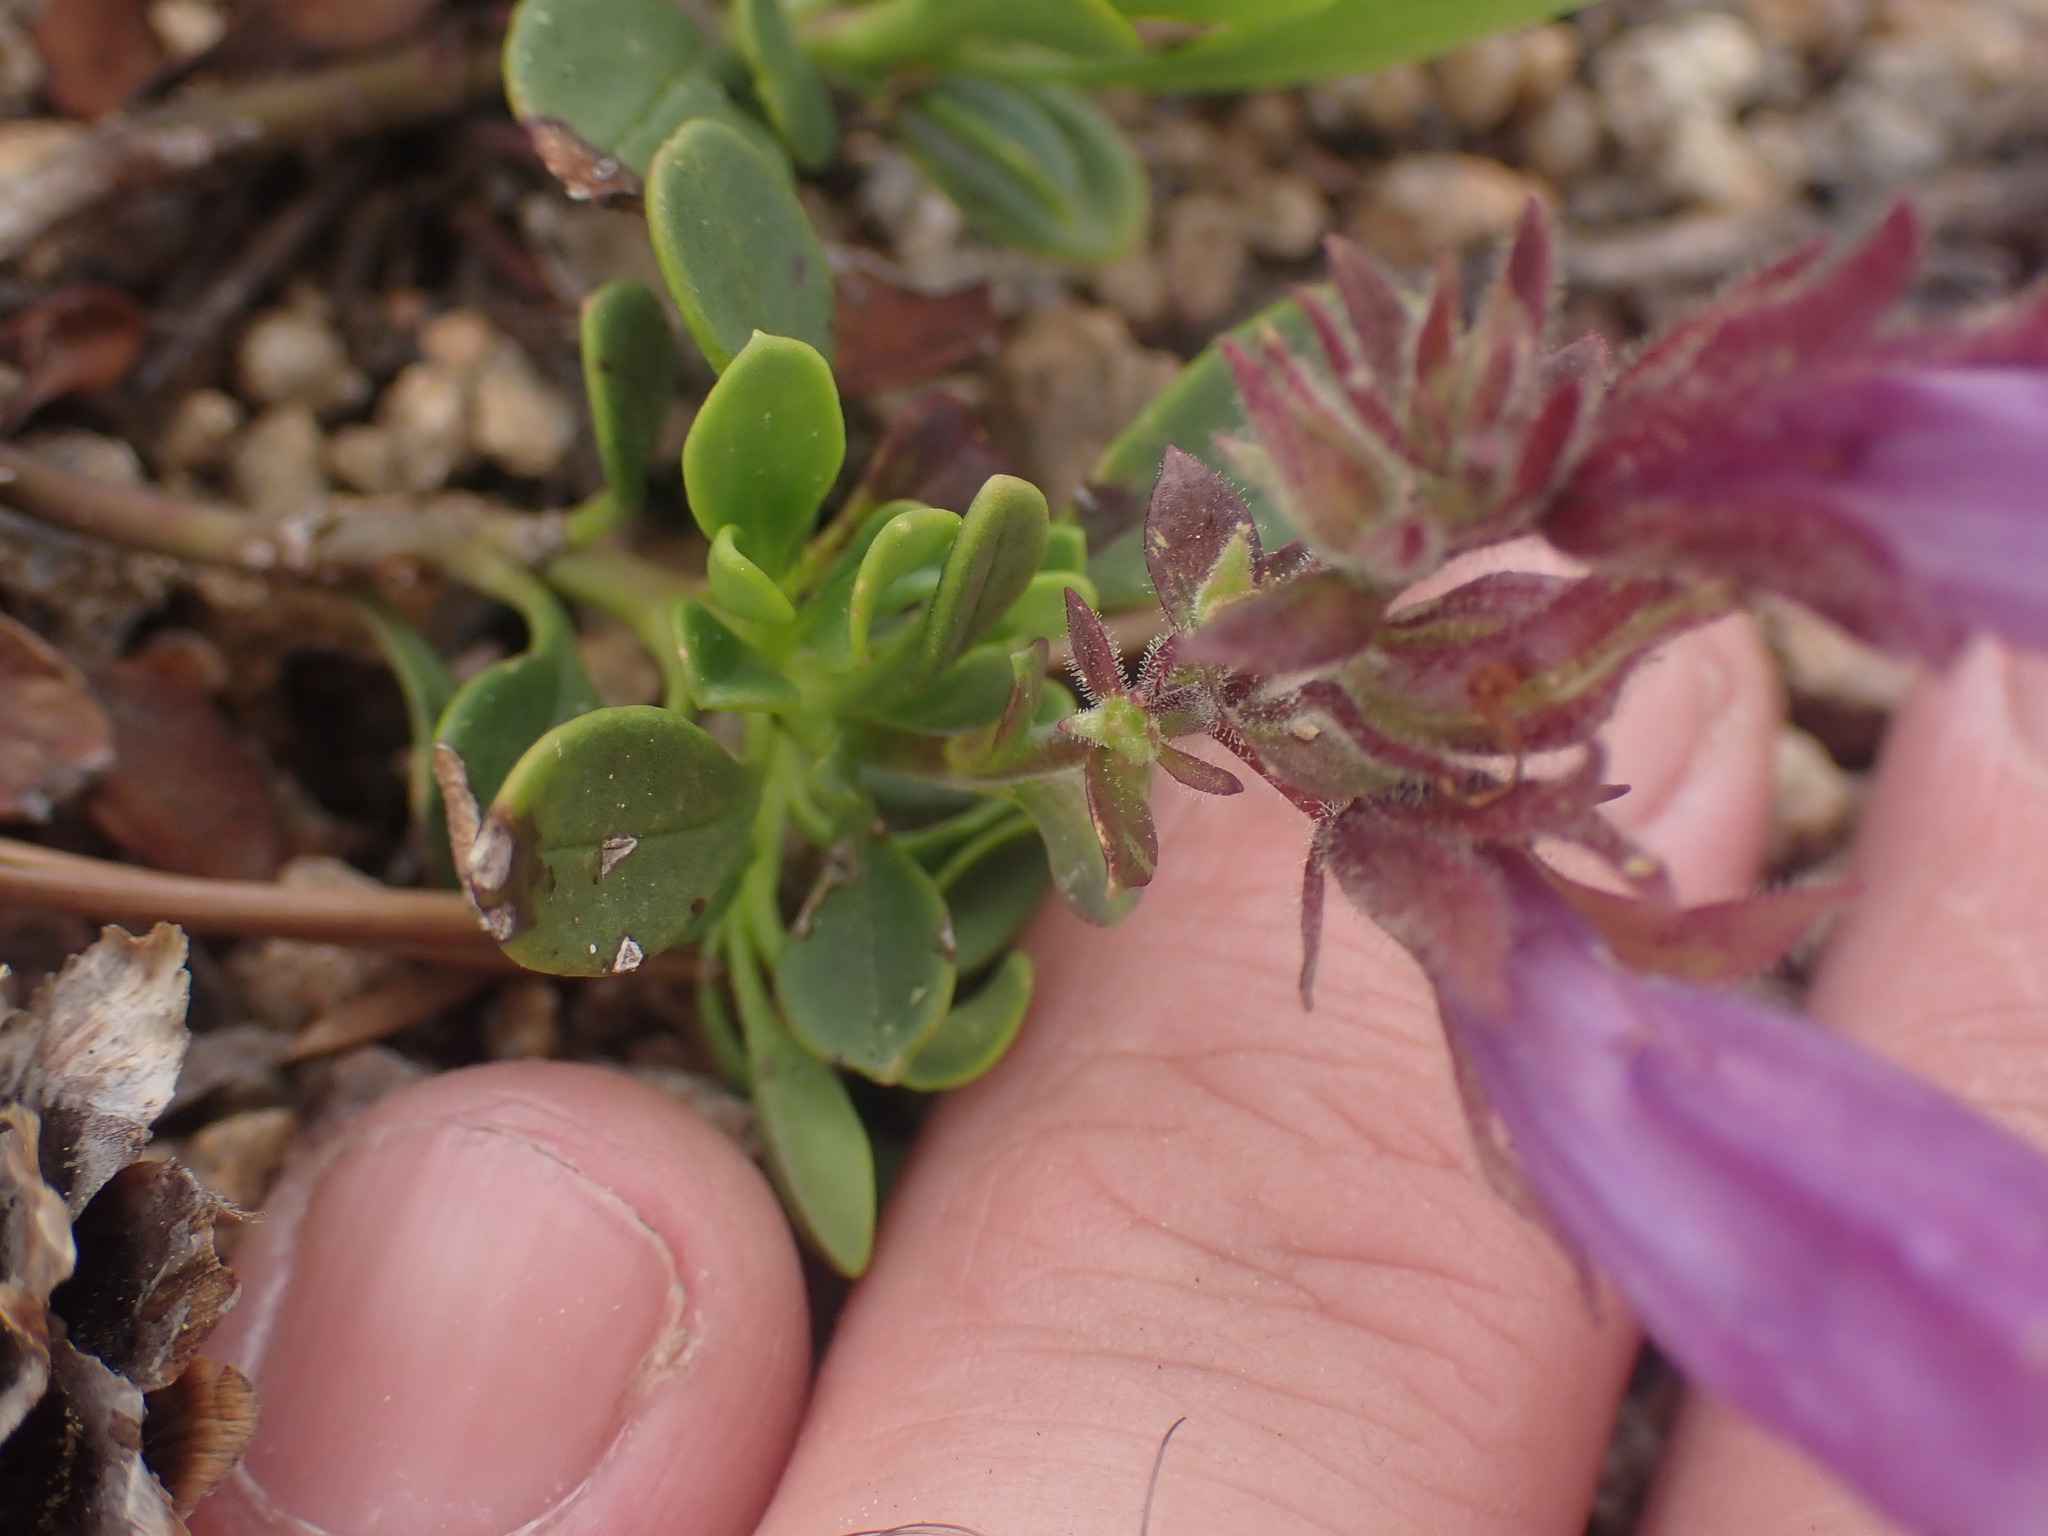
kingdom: Plantae
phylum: Tracheophyta
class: Magnoliopsida
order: Lamiales
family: Plantaginaceae
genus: Penstemon
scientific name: Penstemon davidsonii
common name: Davidson's penstemon
